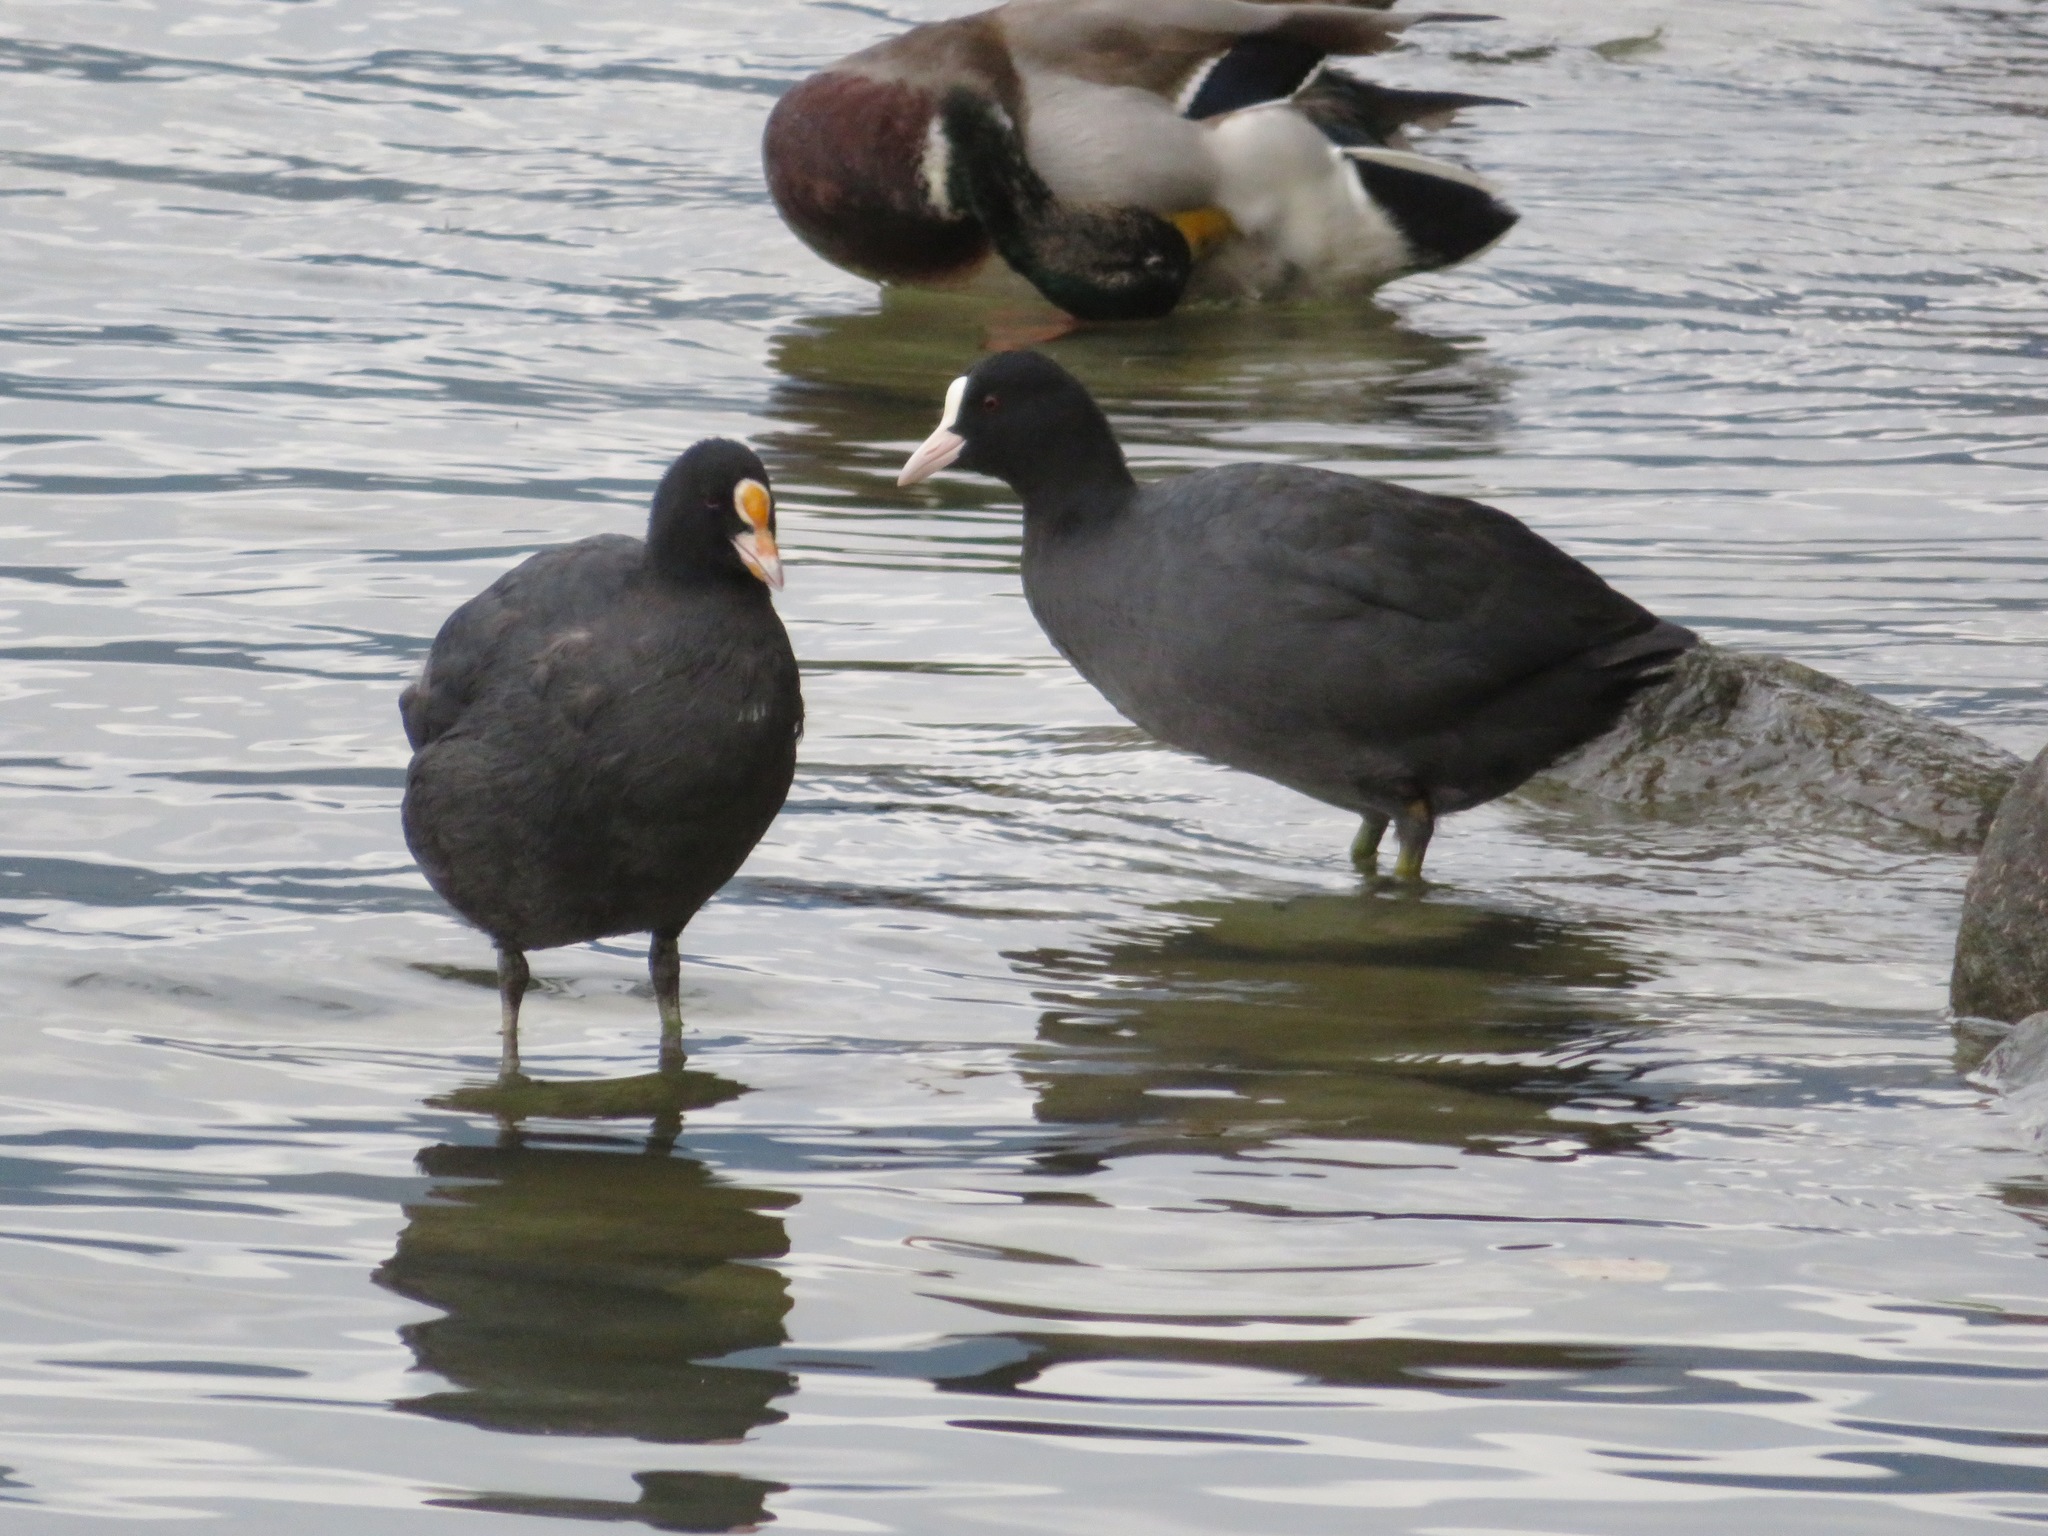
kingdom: Animalia
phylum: Chordata
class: Aves
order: Gruiformes
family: Rallidae
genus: Fulica
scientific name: Fulica atra
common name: Eurasian coot
